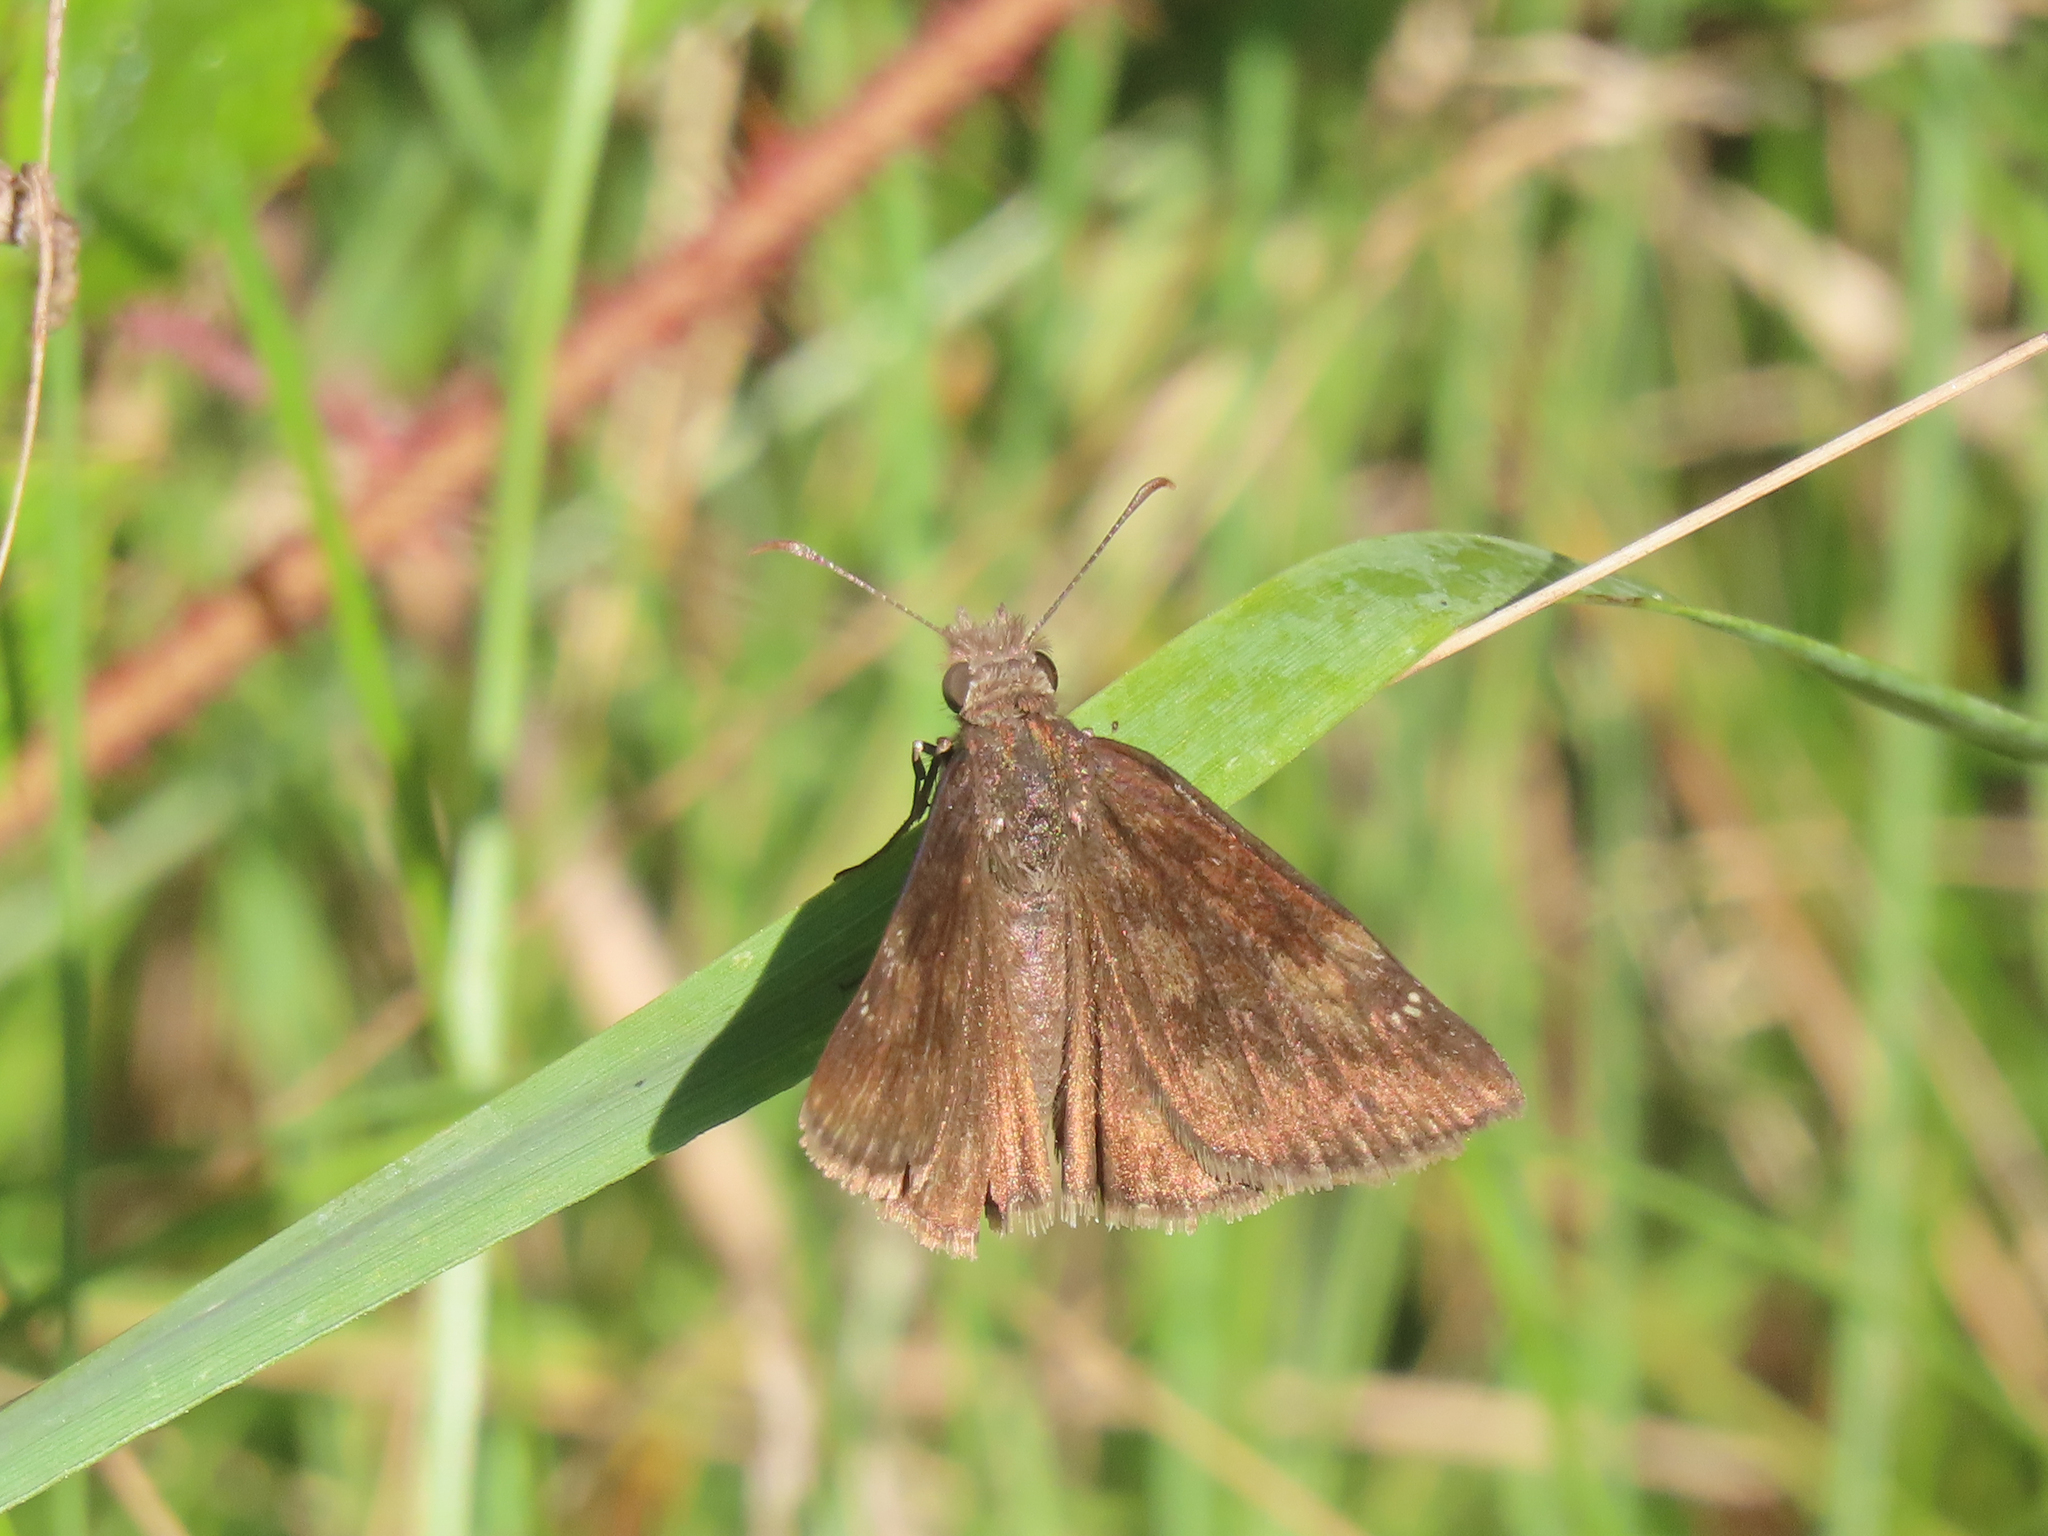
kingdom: Animalia
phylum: Arthropoda
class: Insecta
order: Lepidoptera
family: Hesperiidae
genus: Erynnis
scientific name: Erynnis baptisiae
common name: Wild indigo duskywing
